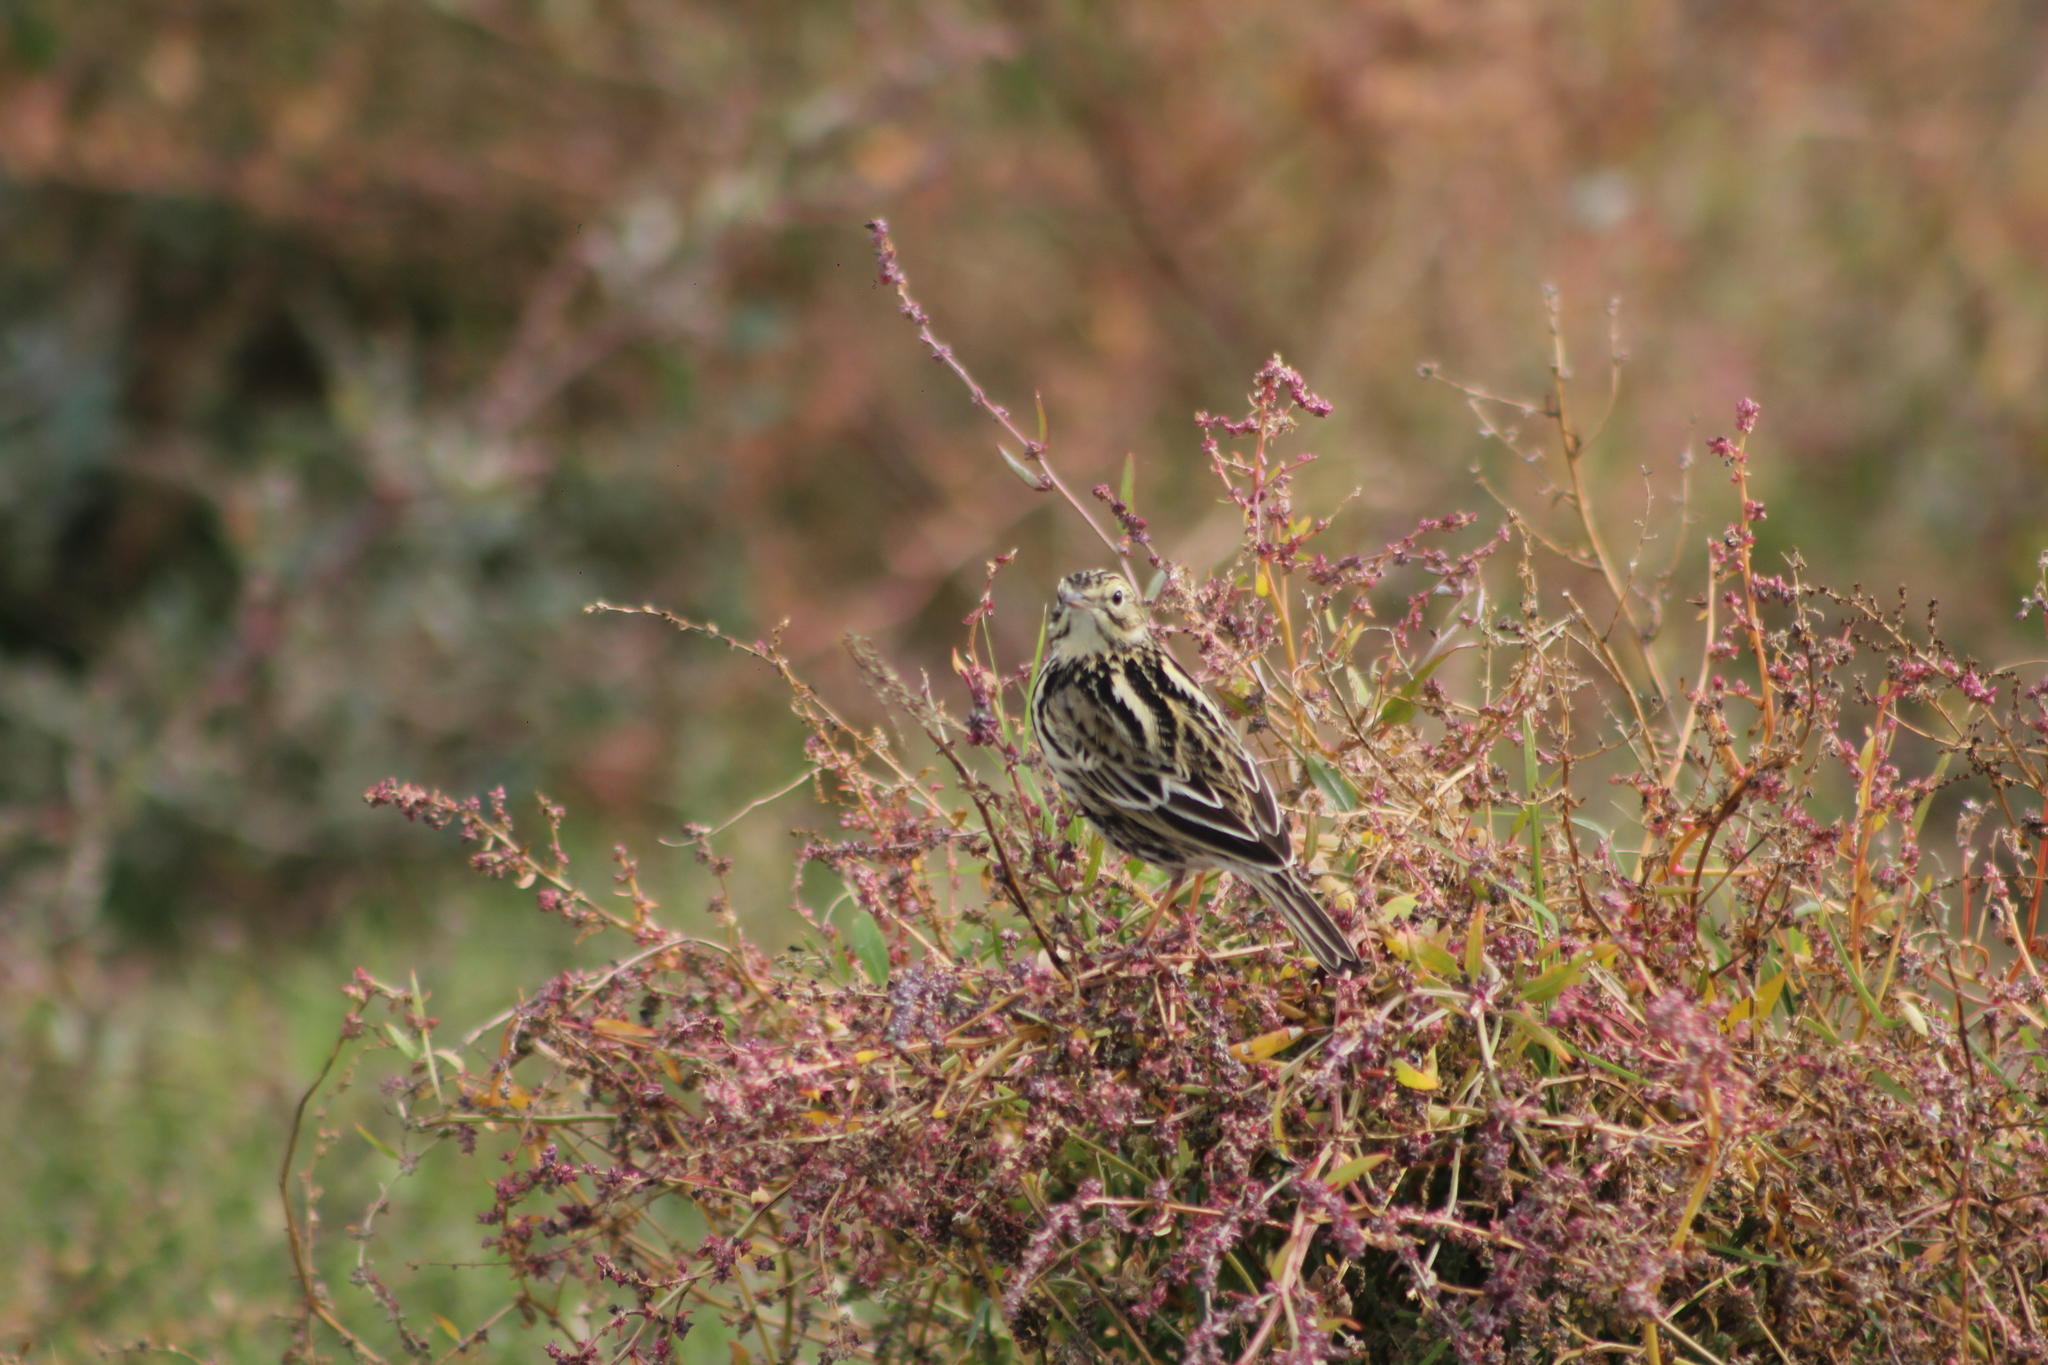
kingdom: Animalia
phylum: Chordata
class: Aves
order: Passeriformes
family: Motacillidae
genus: Anthus
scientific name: Anthus correndera
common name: Correndera pipit
